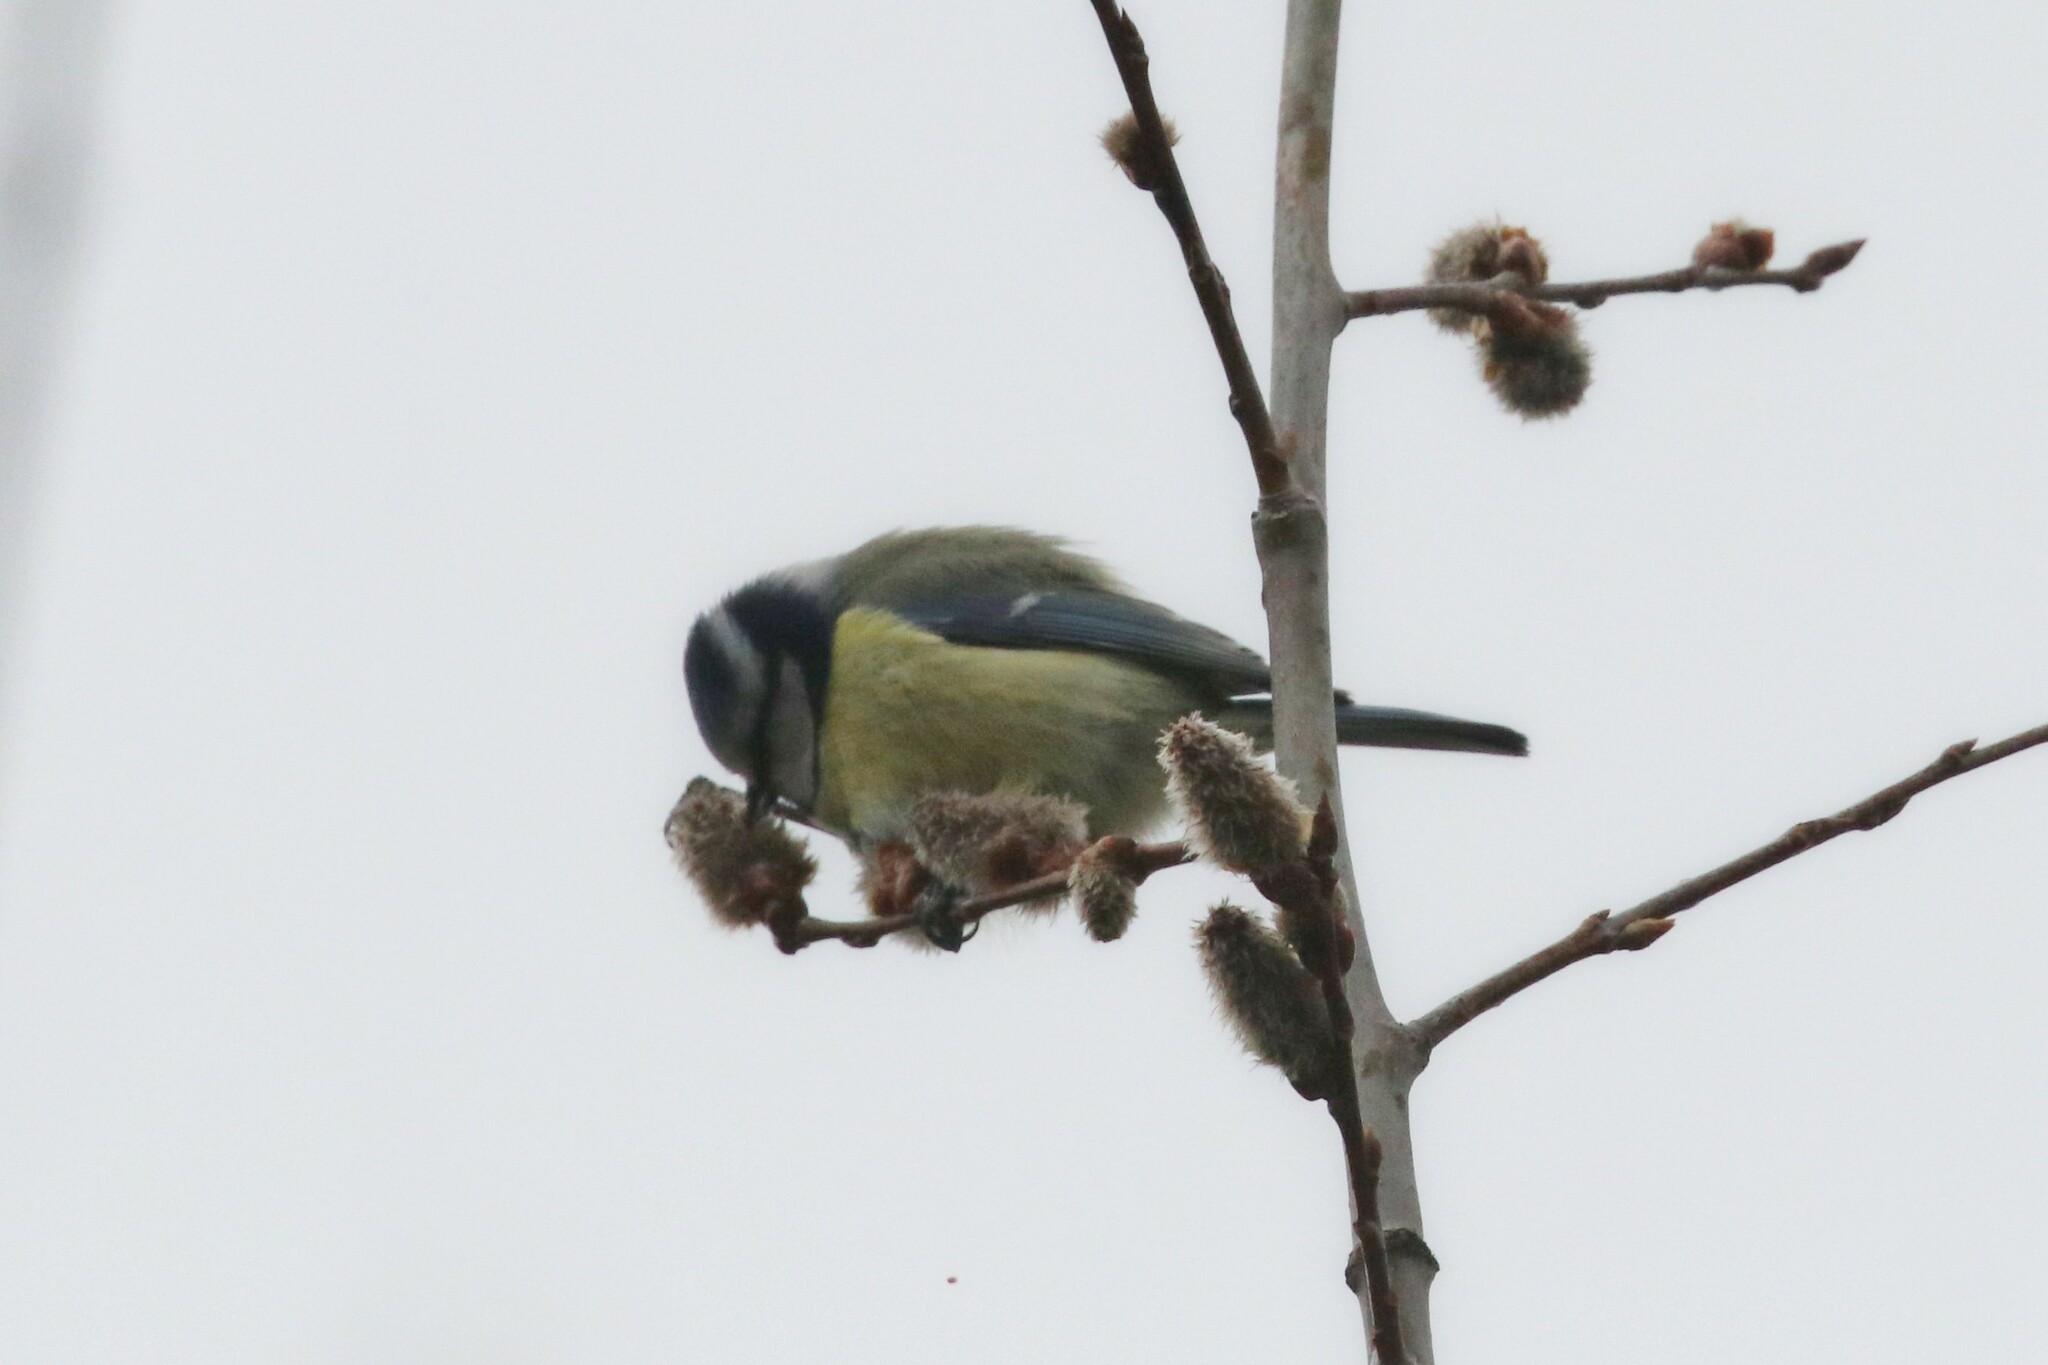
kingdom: Animalia
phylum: Chordata
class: Aves
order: Passeriformes
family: Paridae
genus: Cyanistes
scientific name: Cyanistes caeruleus
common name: Eurasian blue tit
